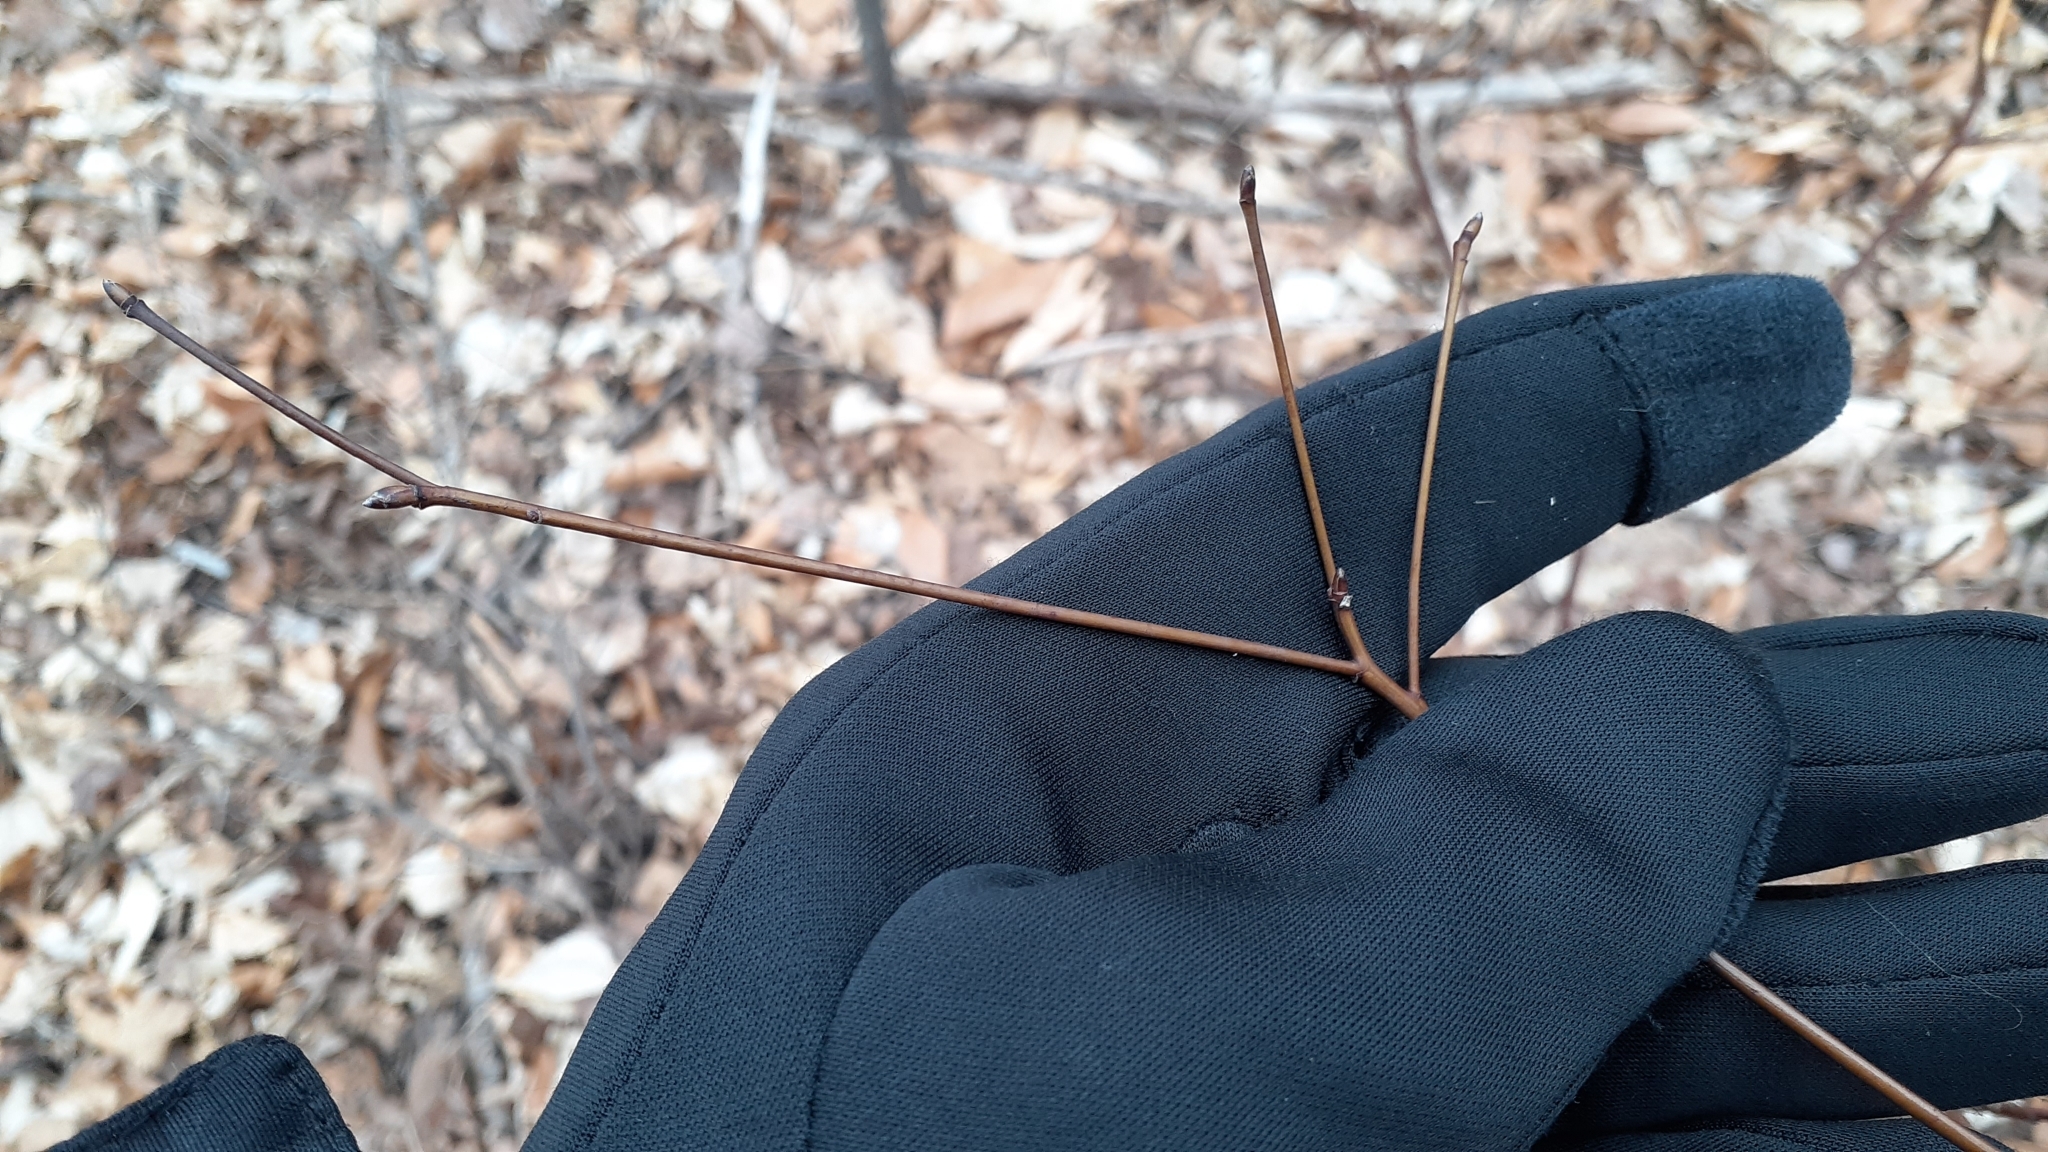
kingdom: Plantae
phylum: Tracheophyta
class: Magnoliopsida
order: Cornales
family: Cornaceae
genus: Cornus
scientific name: Cornus alternifolia
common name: Pagoda dogwood
